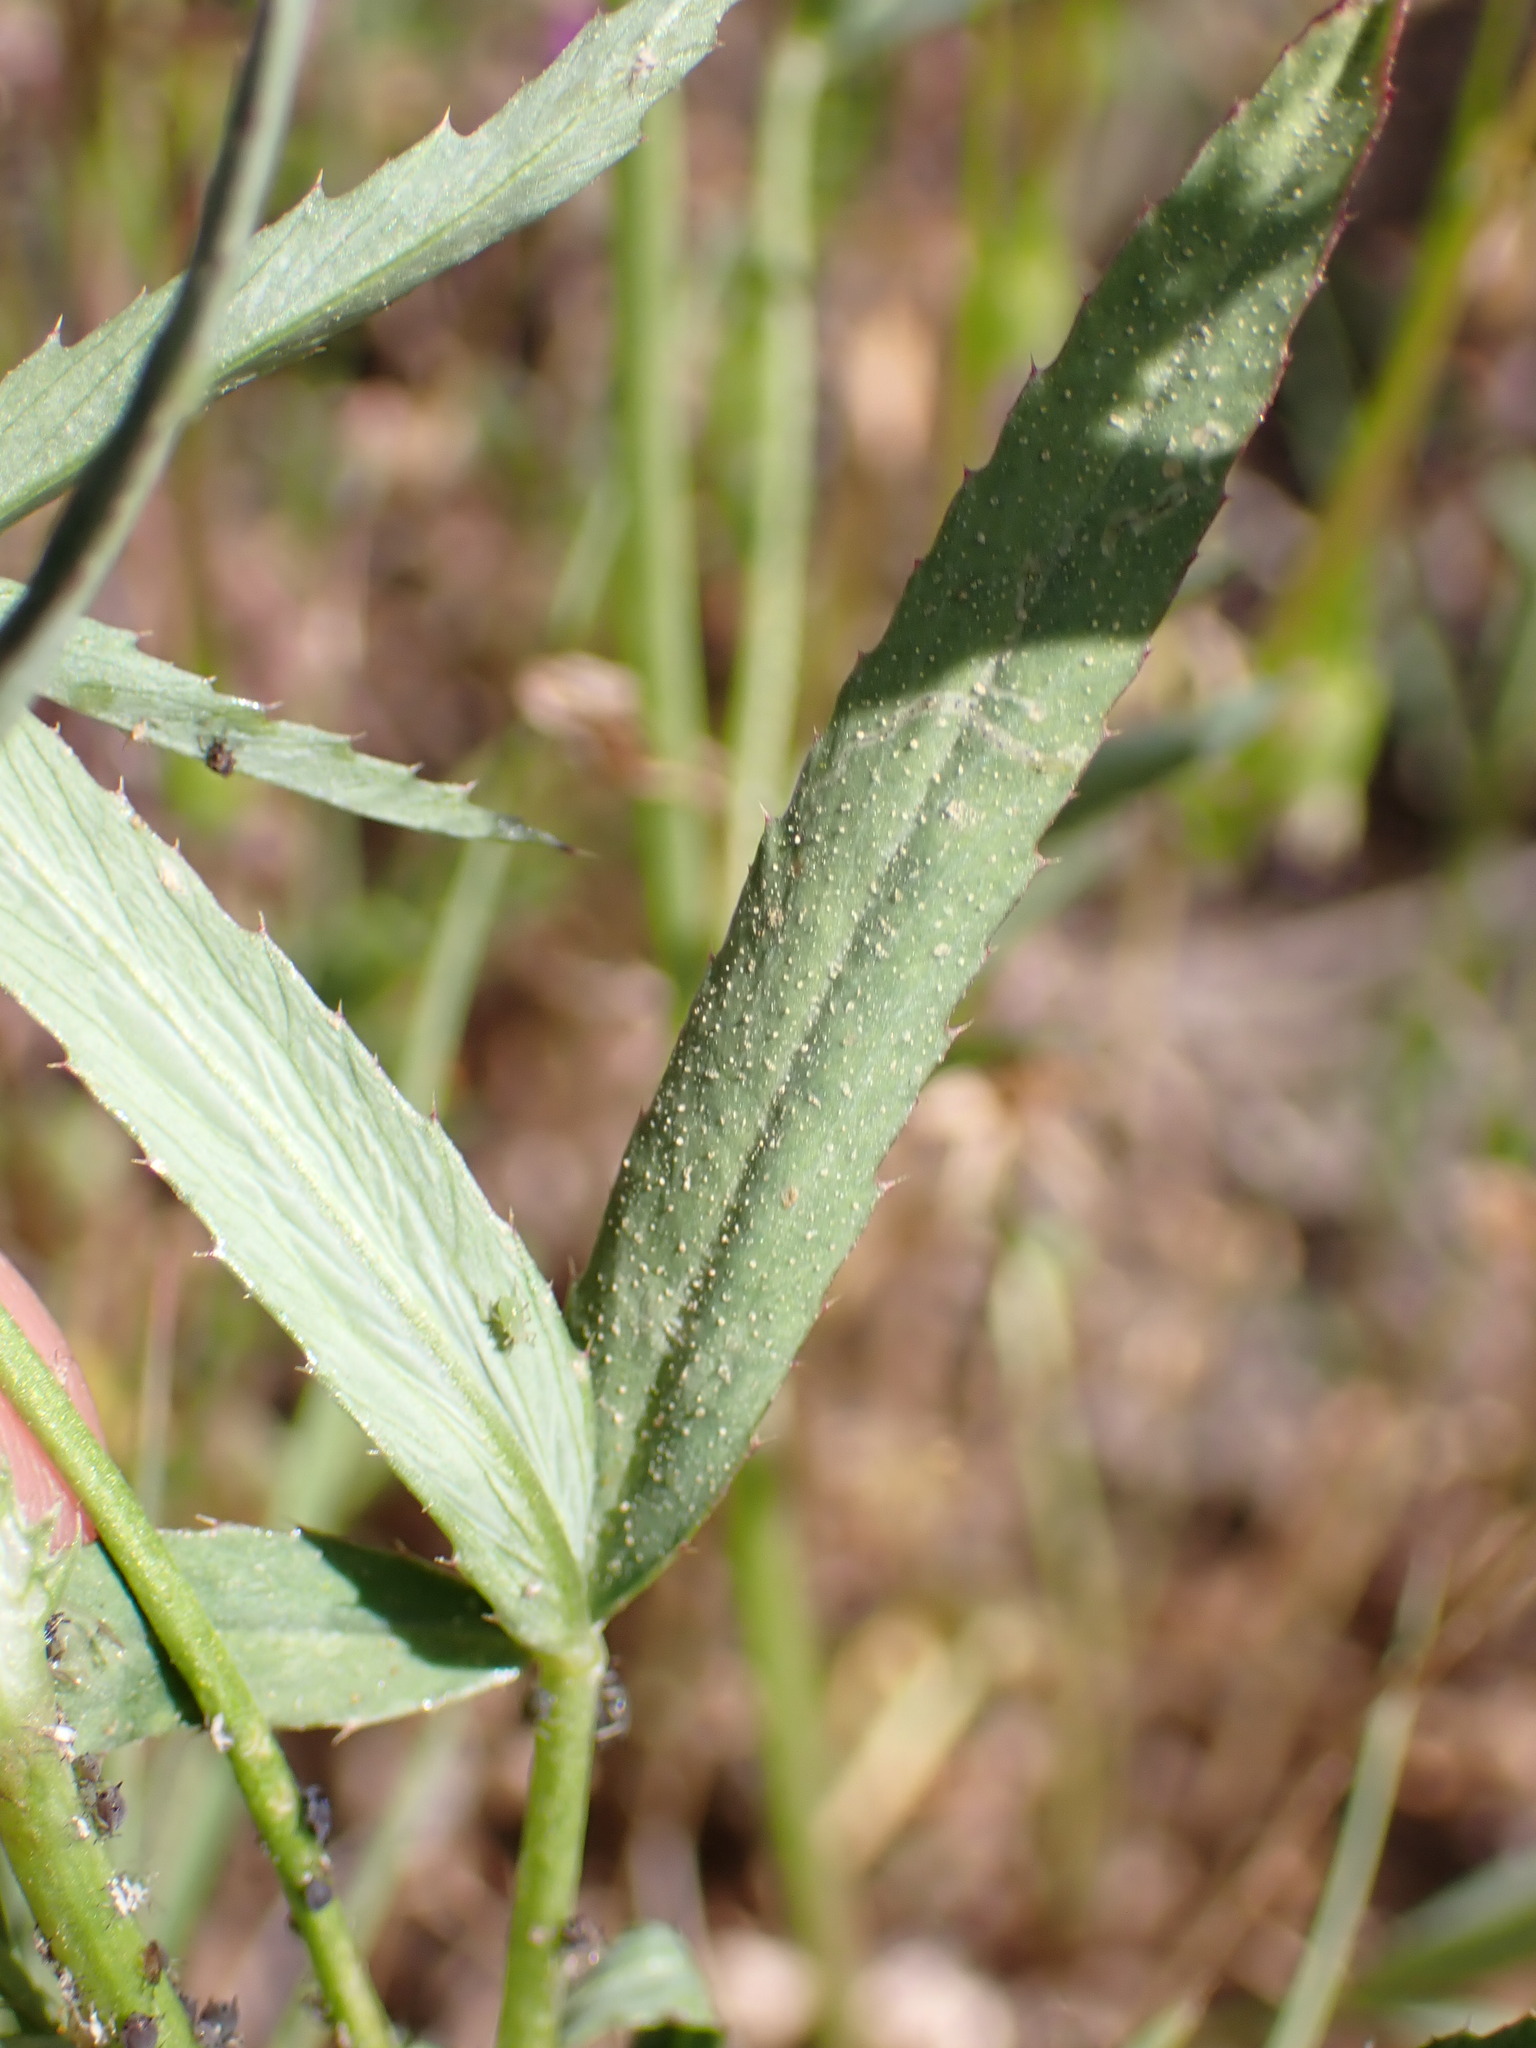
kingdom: Plantae
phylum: Tracheophyta
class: Magnoliopsida
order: Fabales
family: Fabaceae
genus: Trifolium
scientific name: Trifolium willdenovii
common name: Tomcat clover
